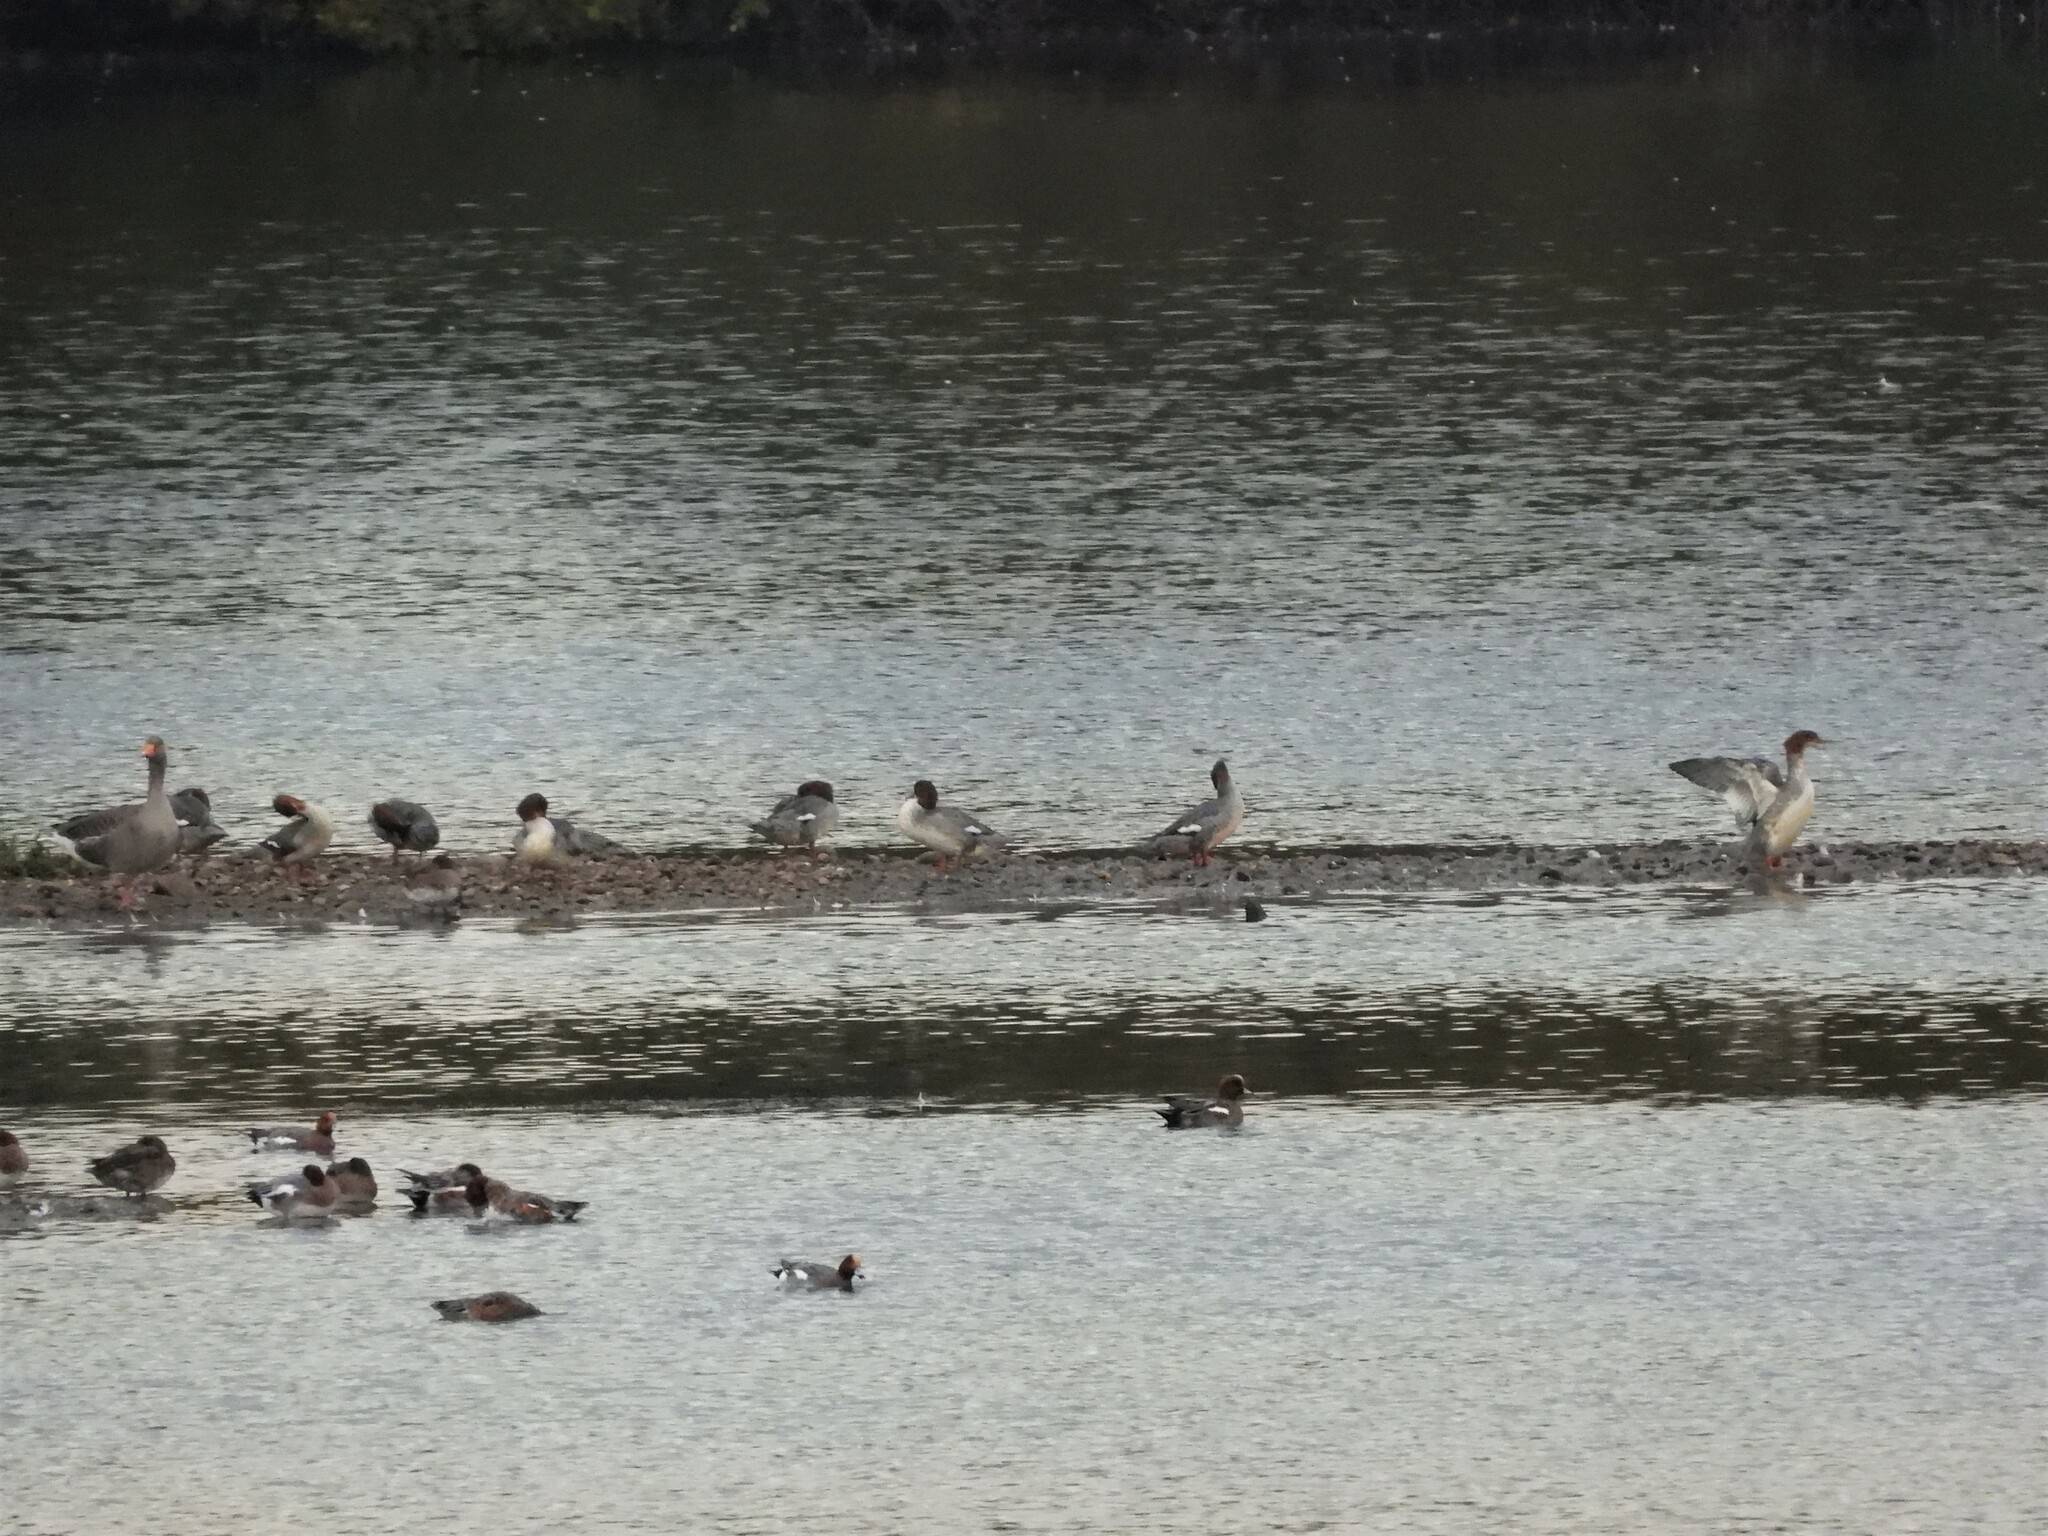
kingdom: Animalia
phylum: Chordata
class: Aves
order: Anseriformes
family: Anatidae
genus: Mergus
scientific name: Mergus merganser
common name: Common merganser
